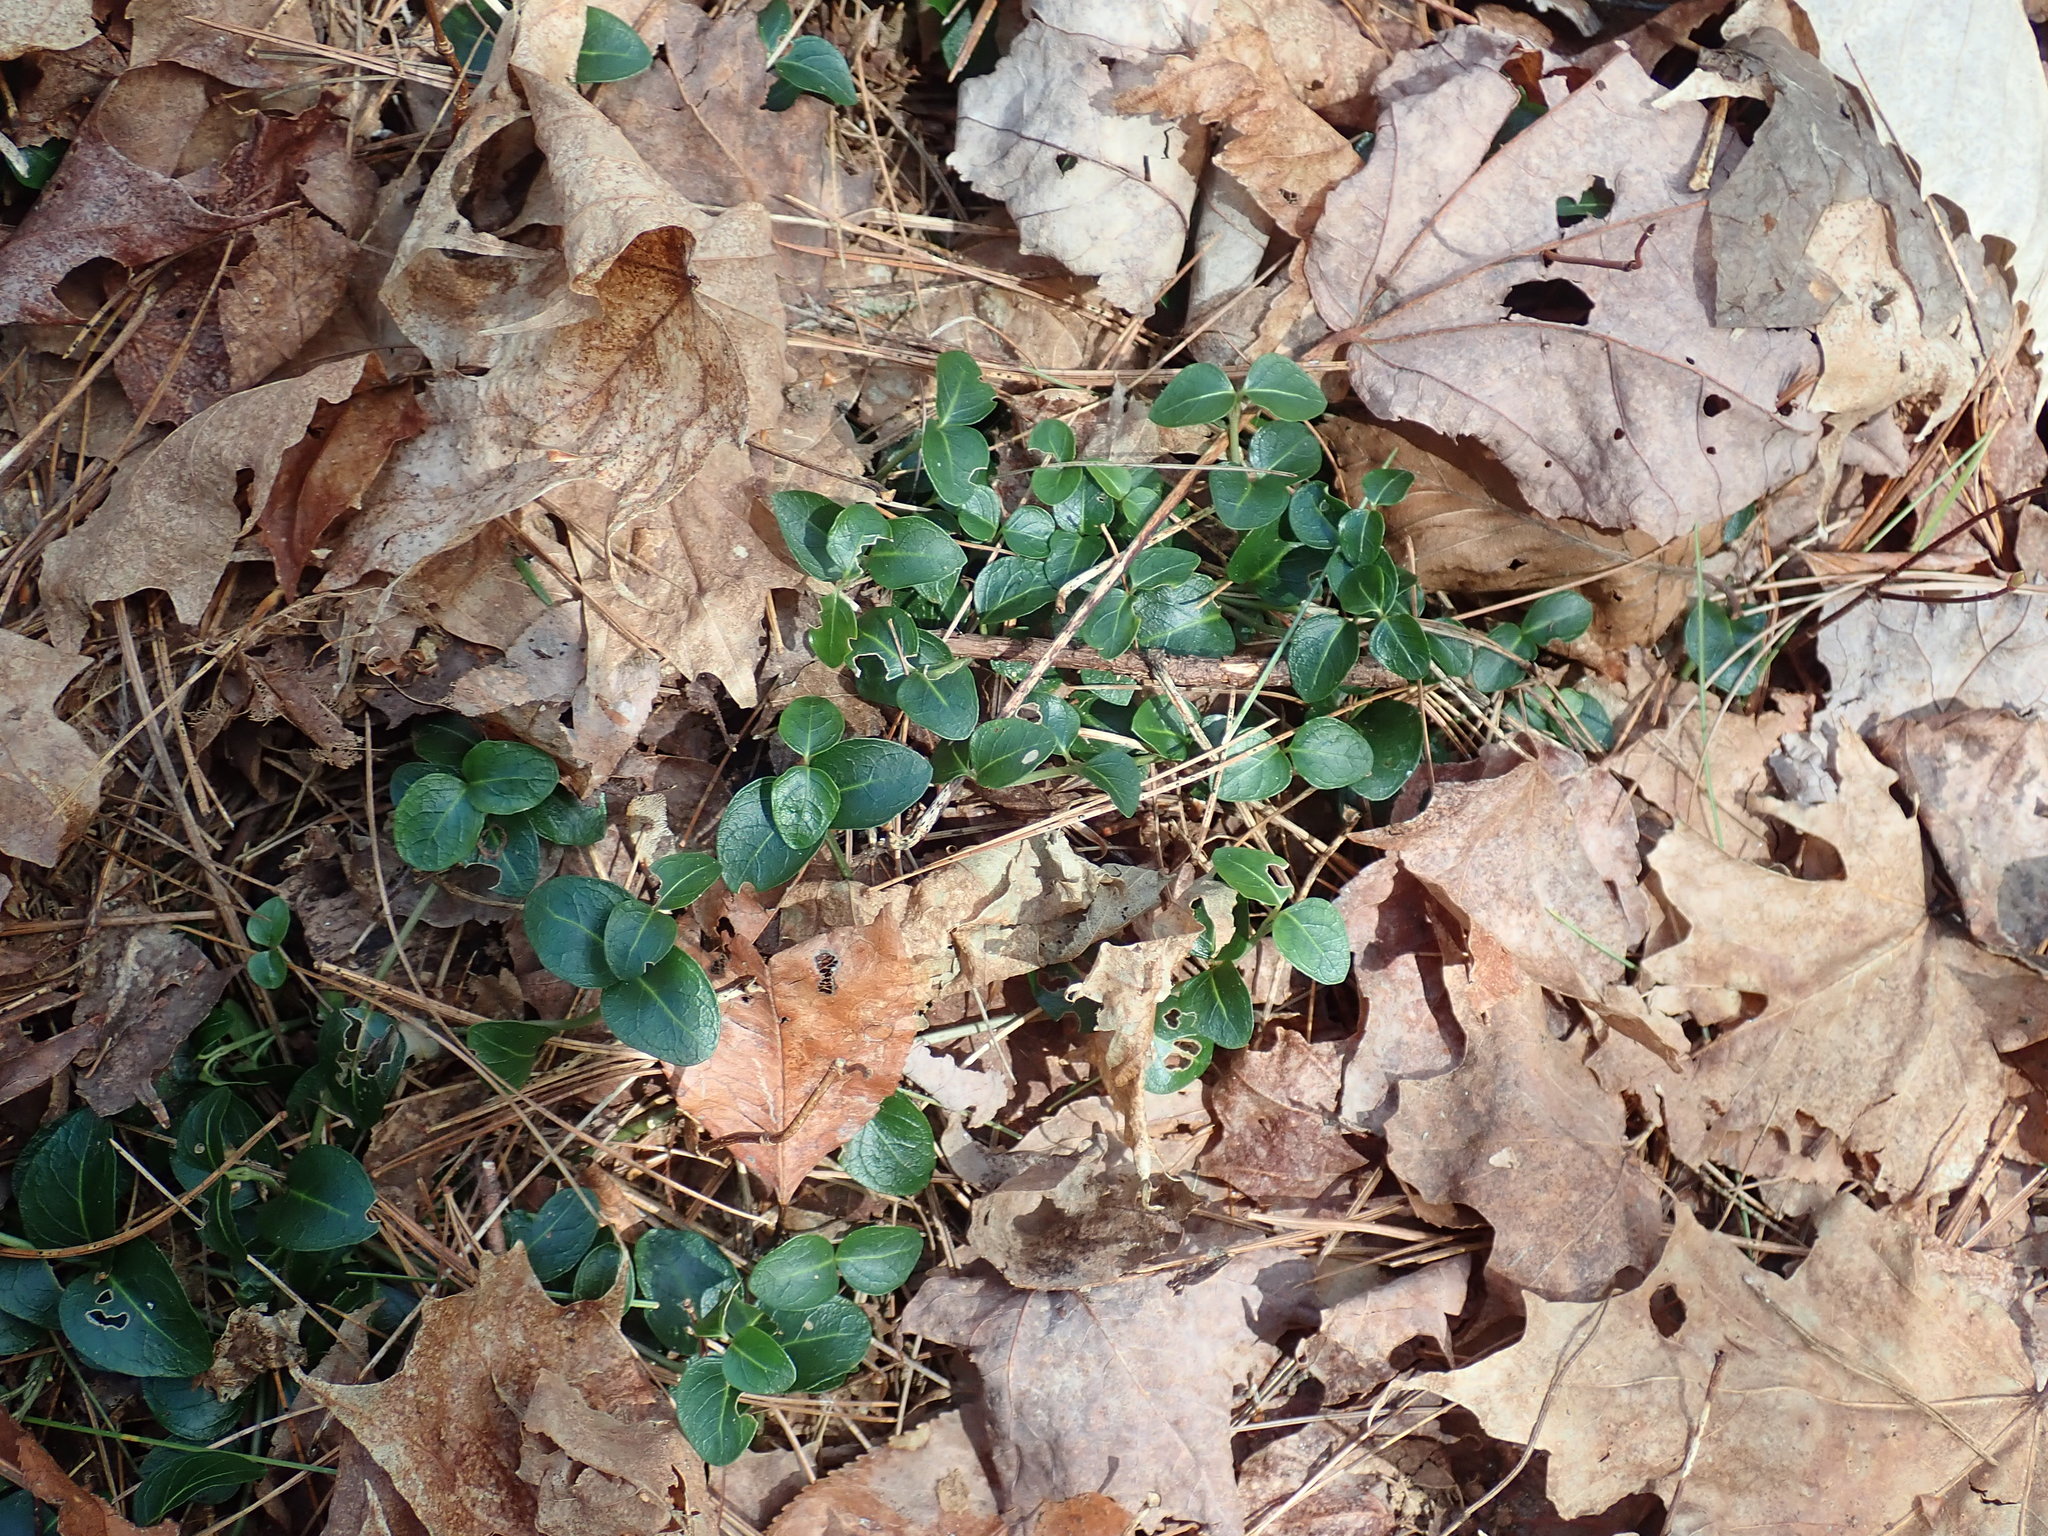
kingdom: Plantae
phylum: Tracheophyta
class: Magnoliopsida
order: Gentianales
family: Rubiaceae
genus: Mitchella
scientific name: Mitchella repens
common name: Partridge-berry
